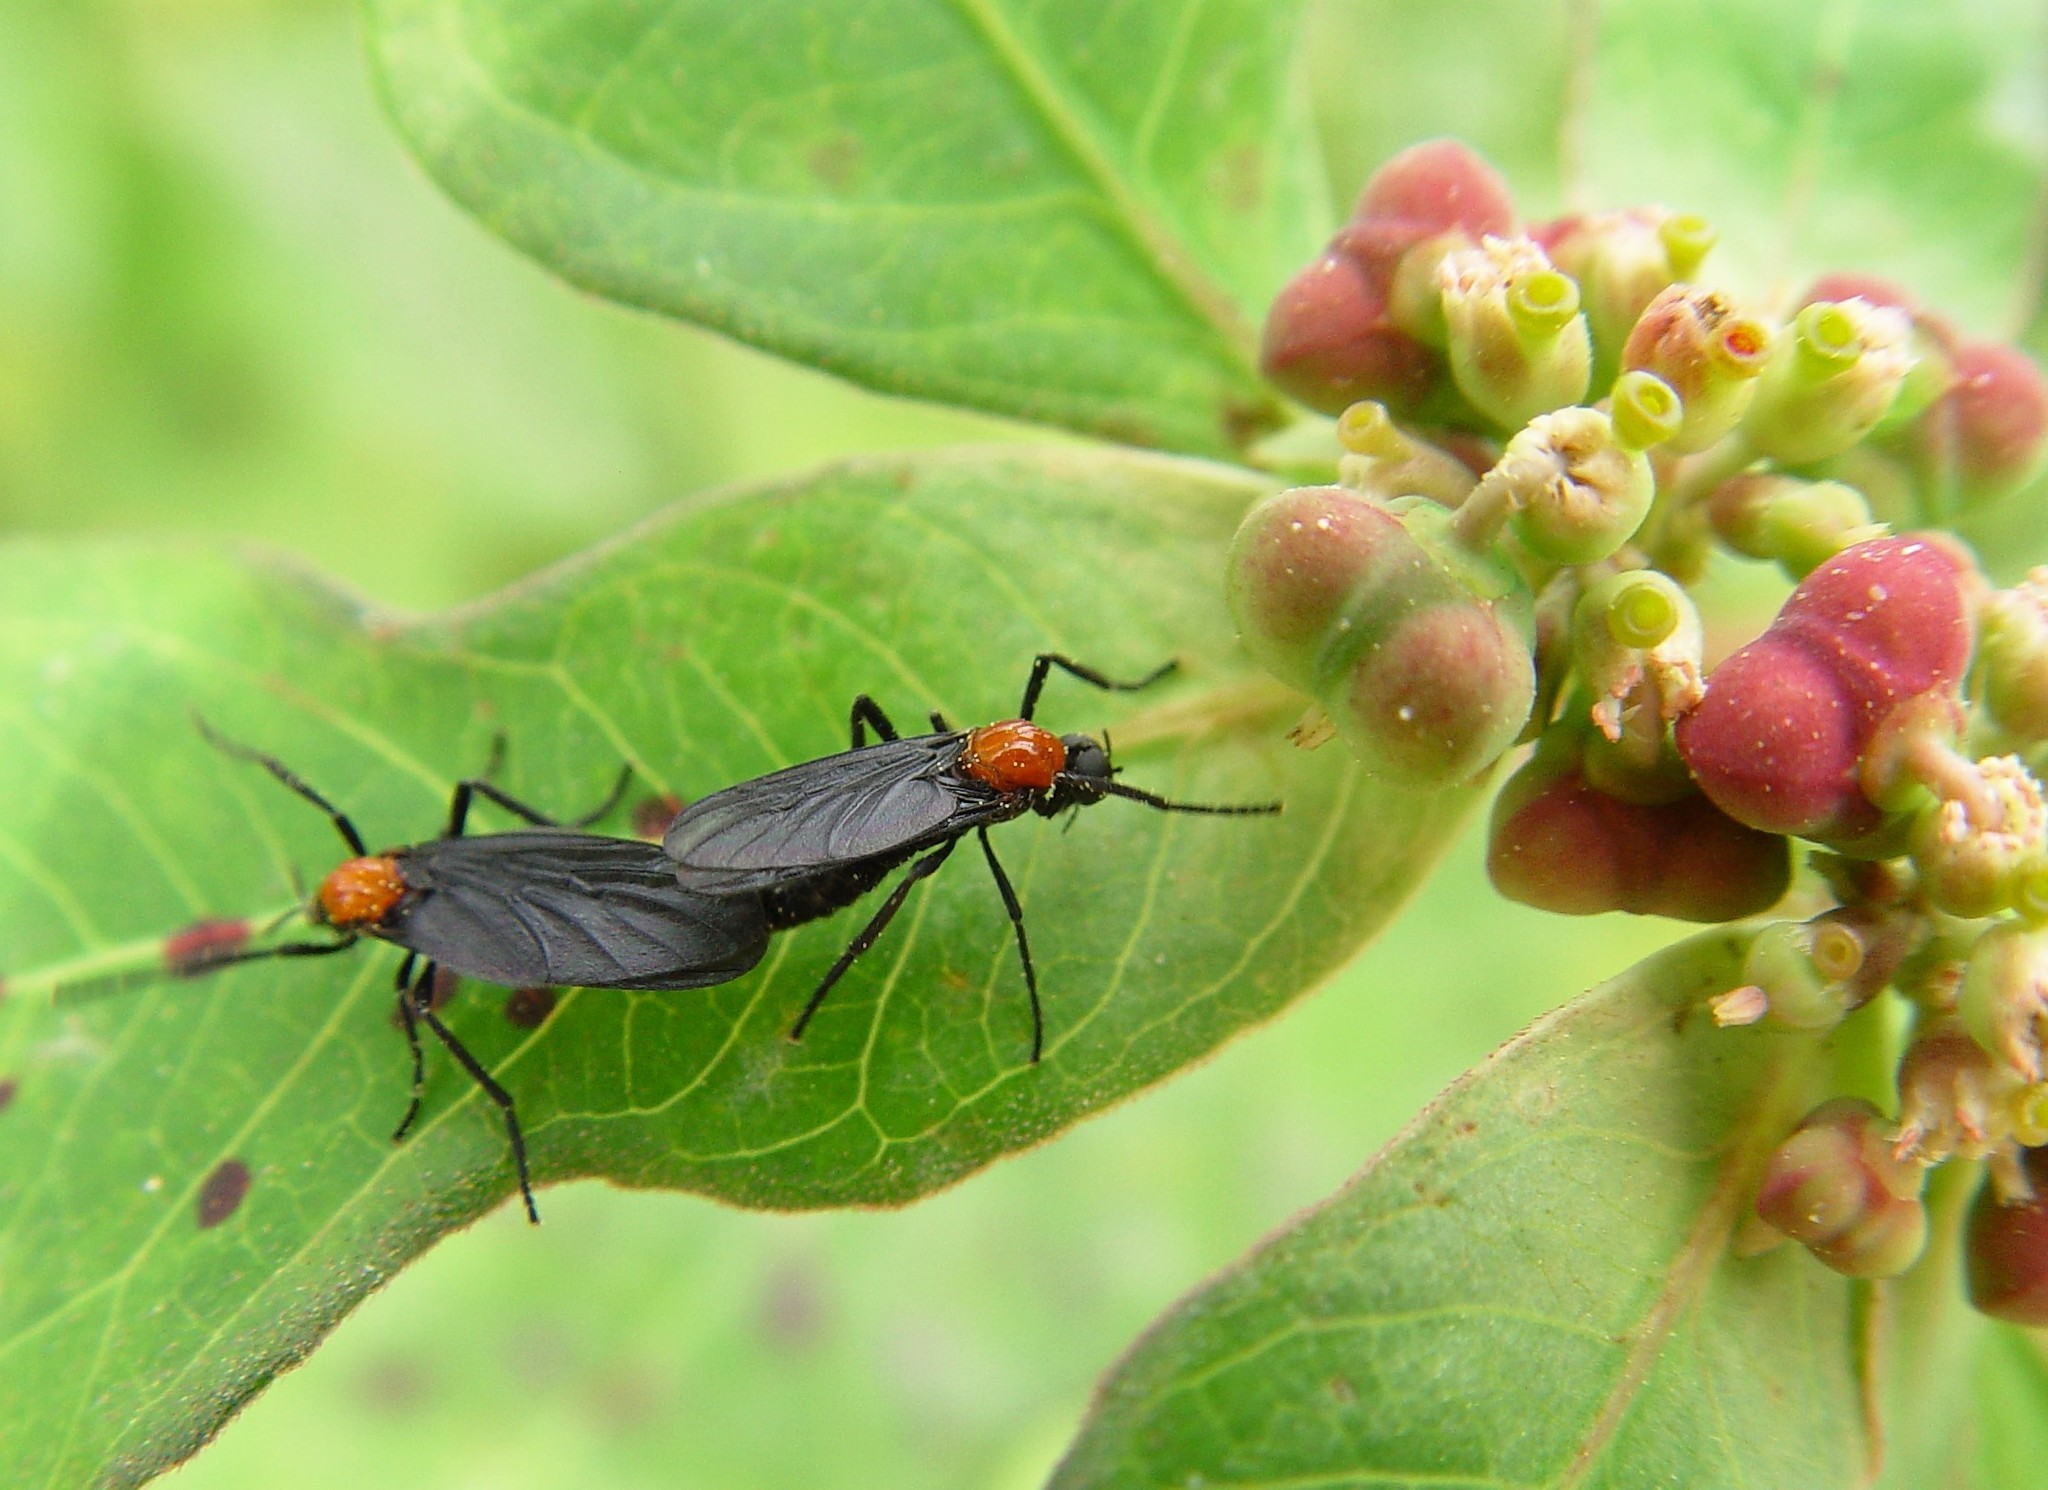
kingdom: Animalia
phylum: Arthropoda
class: Insecta
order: Diptera
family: Bibionidae
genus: Plecia
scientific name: Plecia nearctica
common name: March fly
